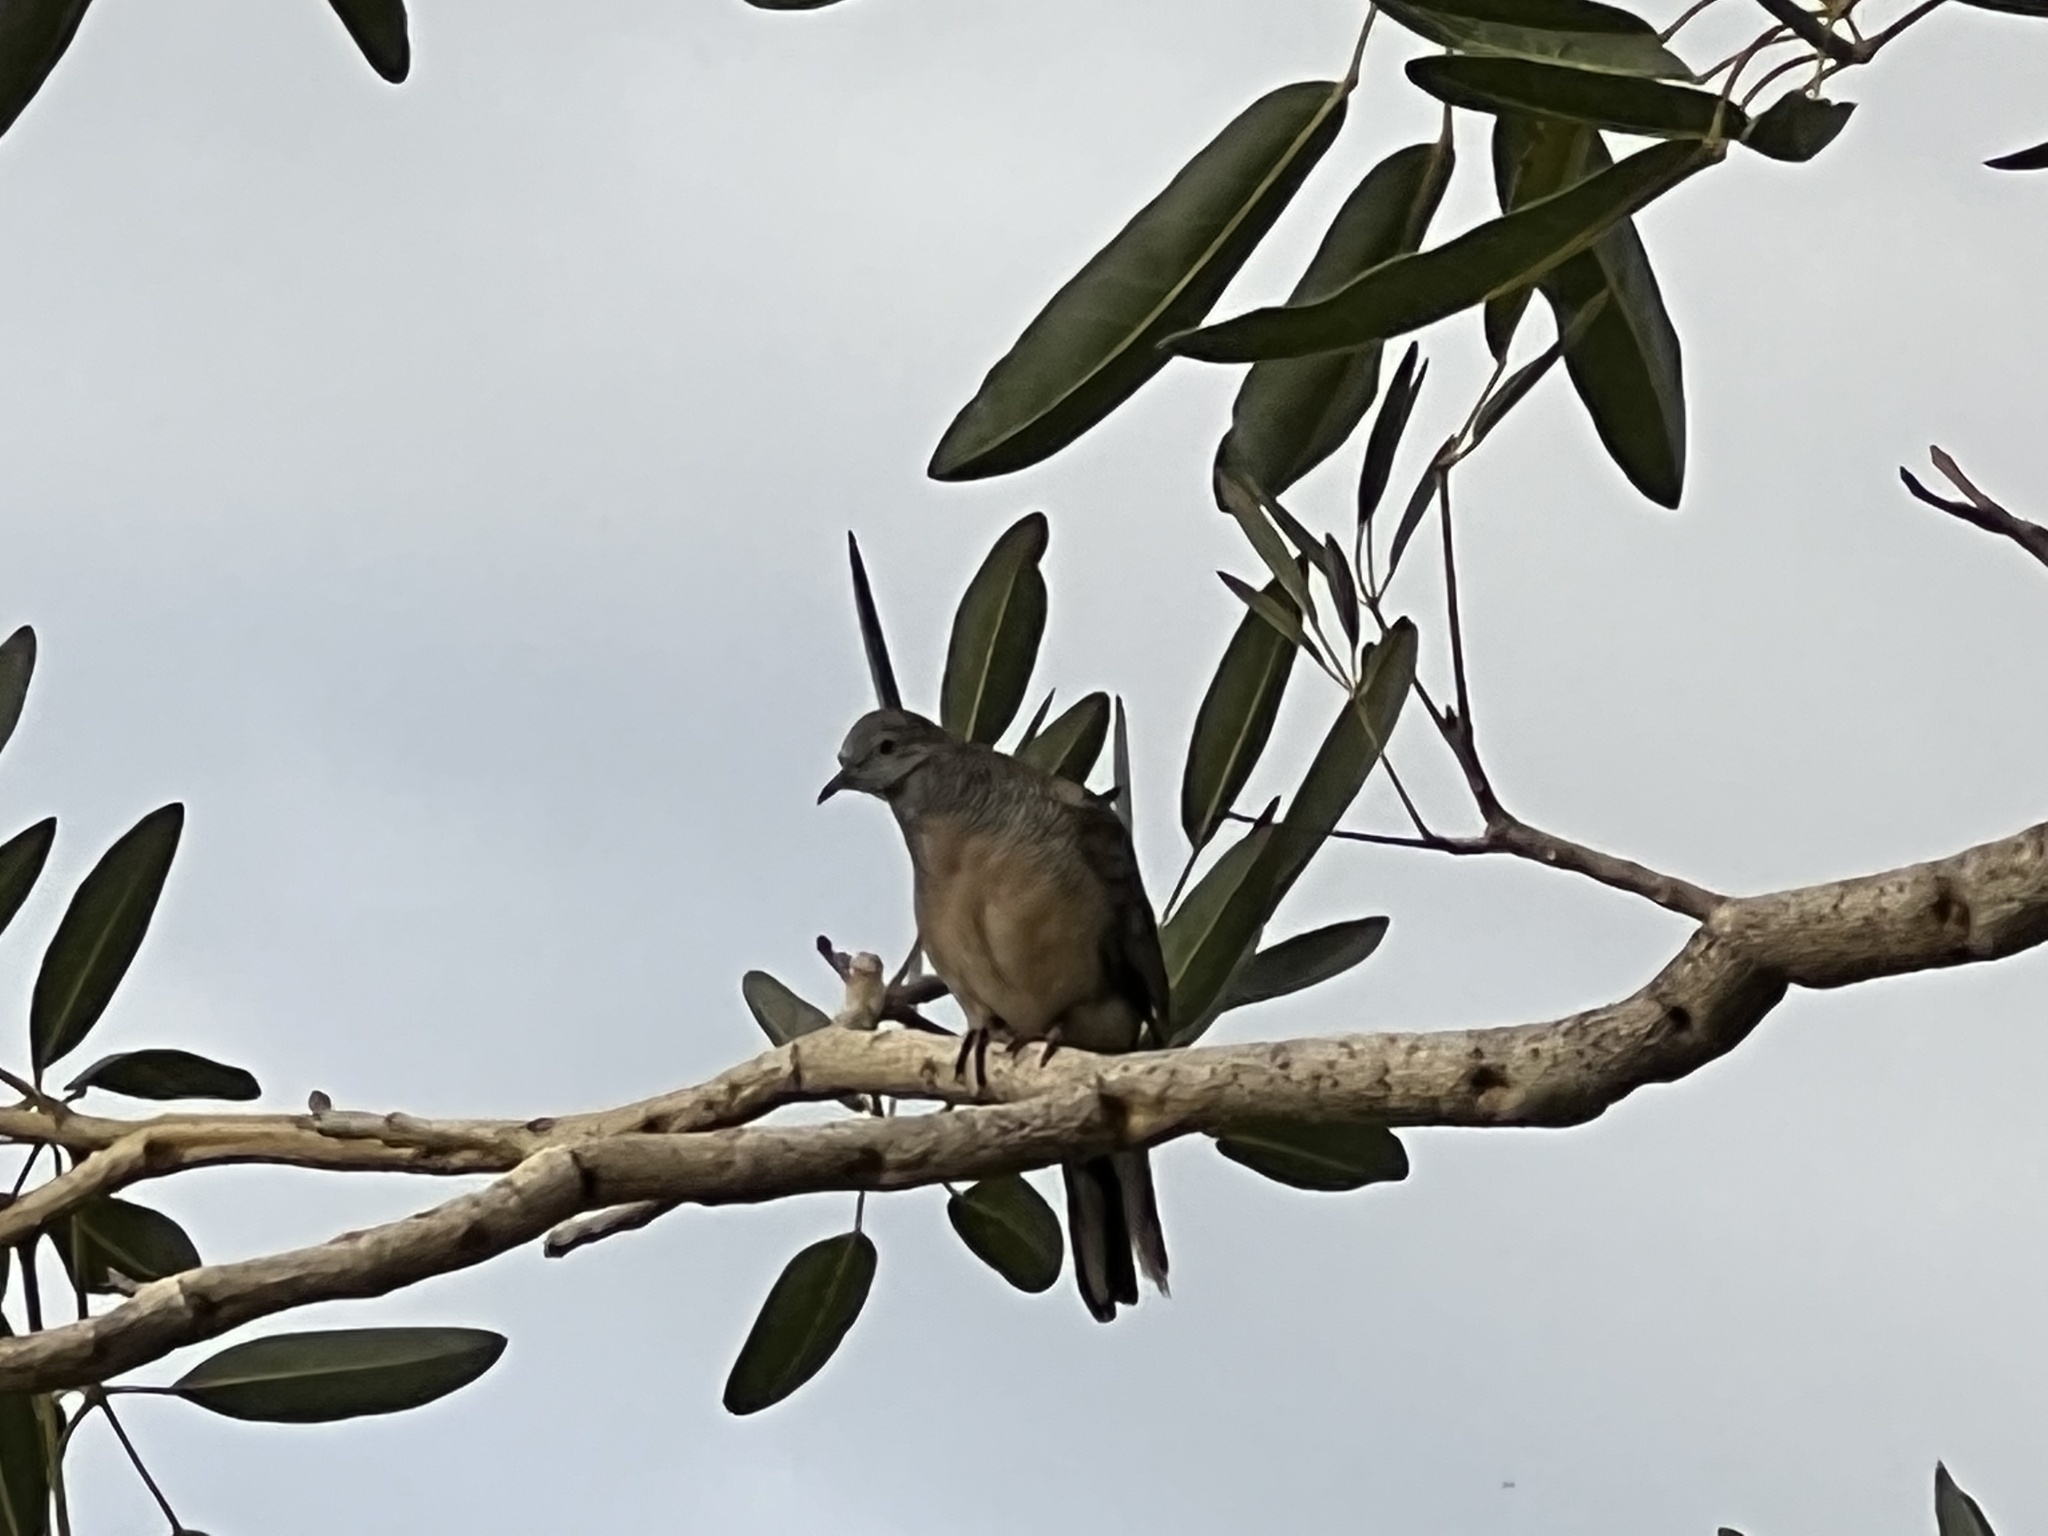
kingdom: Animalia
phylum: Chordata
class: Aves
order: Columbiformes
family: Columbidae
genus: Geopelia
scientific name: Geopelia striata
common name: Zebra dove
